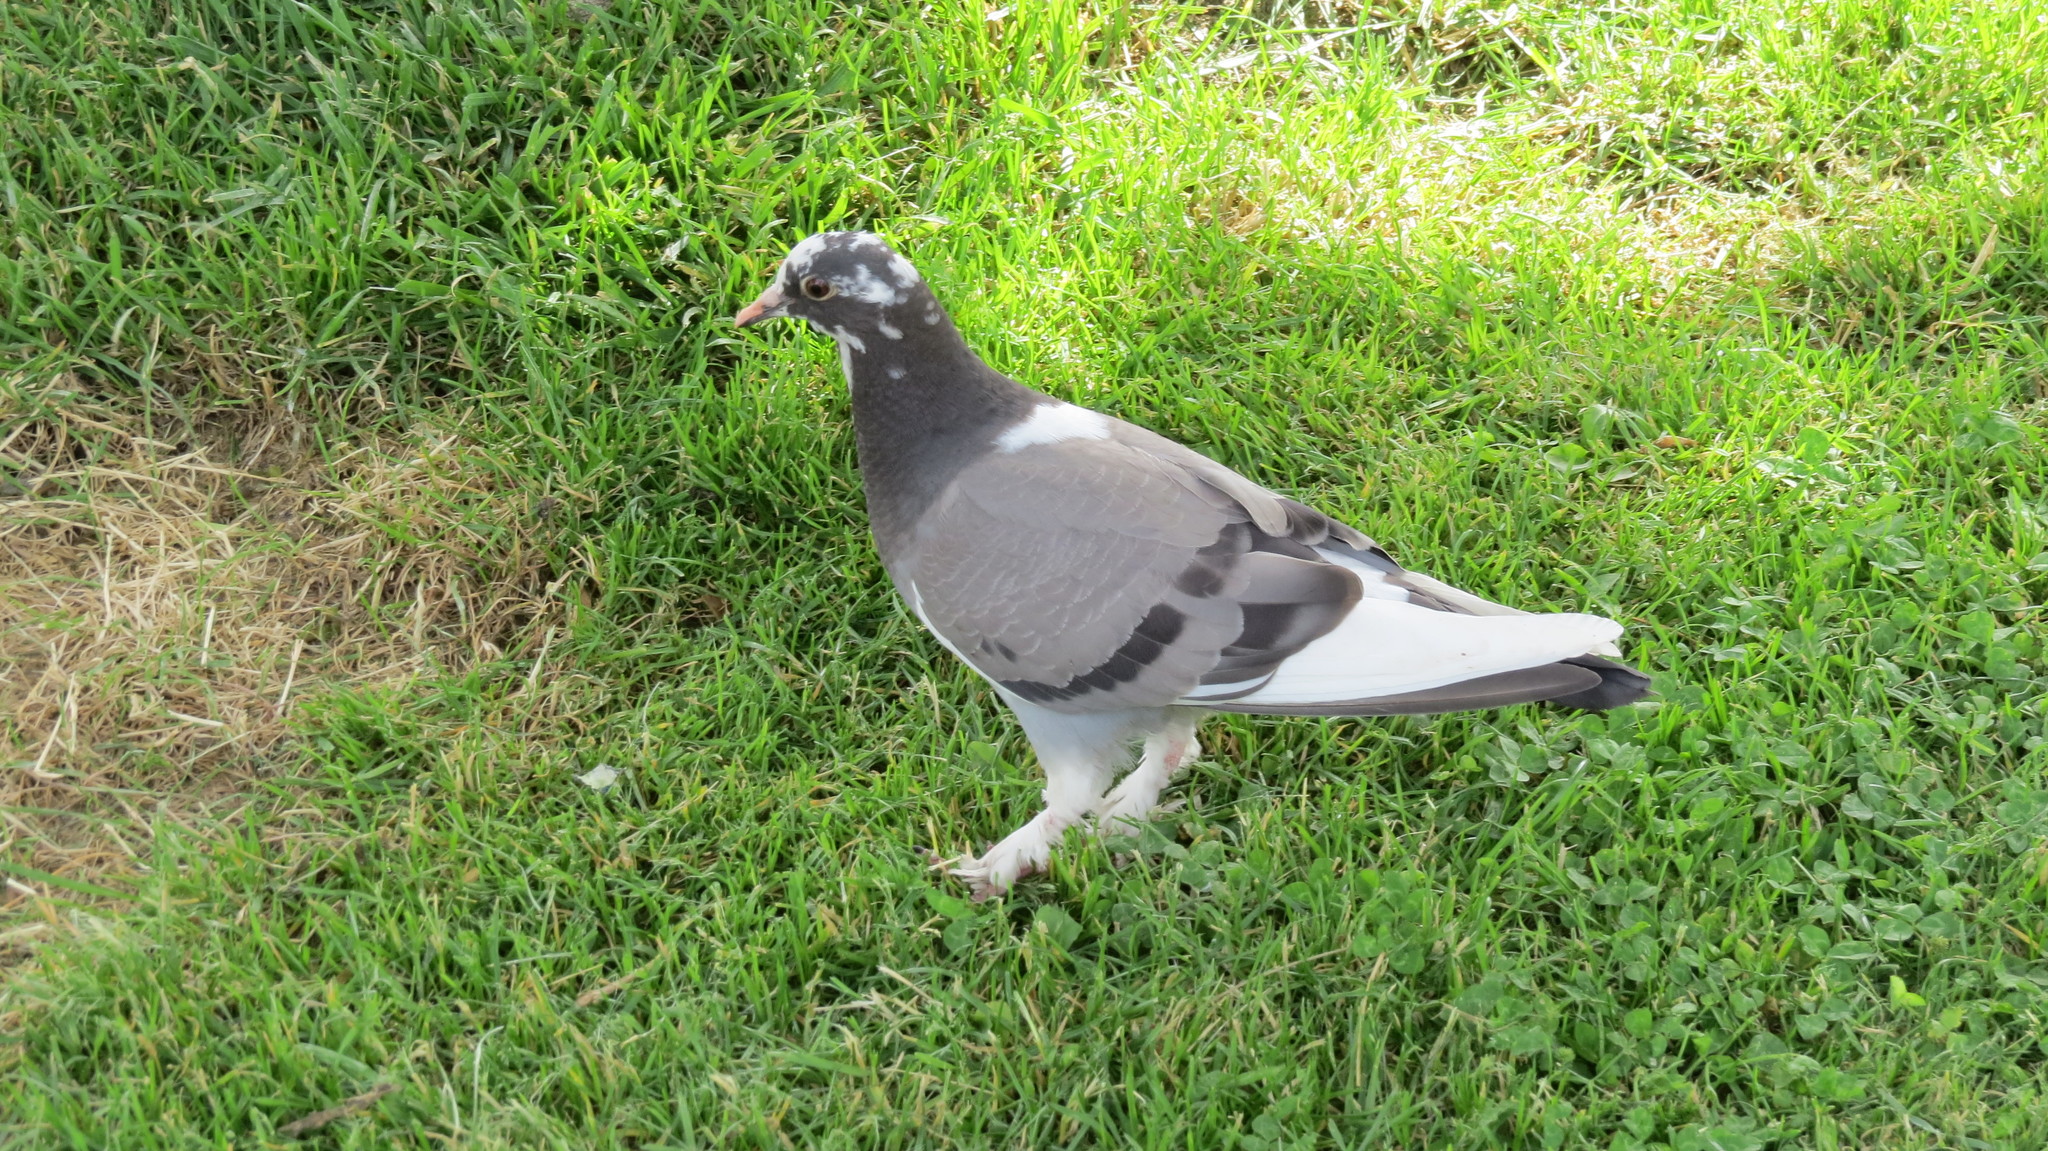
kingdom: Animalia
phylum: Chordata
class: Aves
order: Columbiformes
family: Columbidae
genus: Columba
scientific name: Columba livia
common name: Rock pigeon
